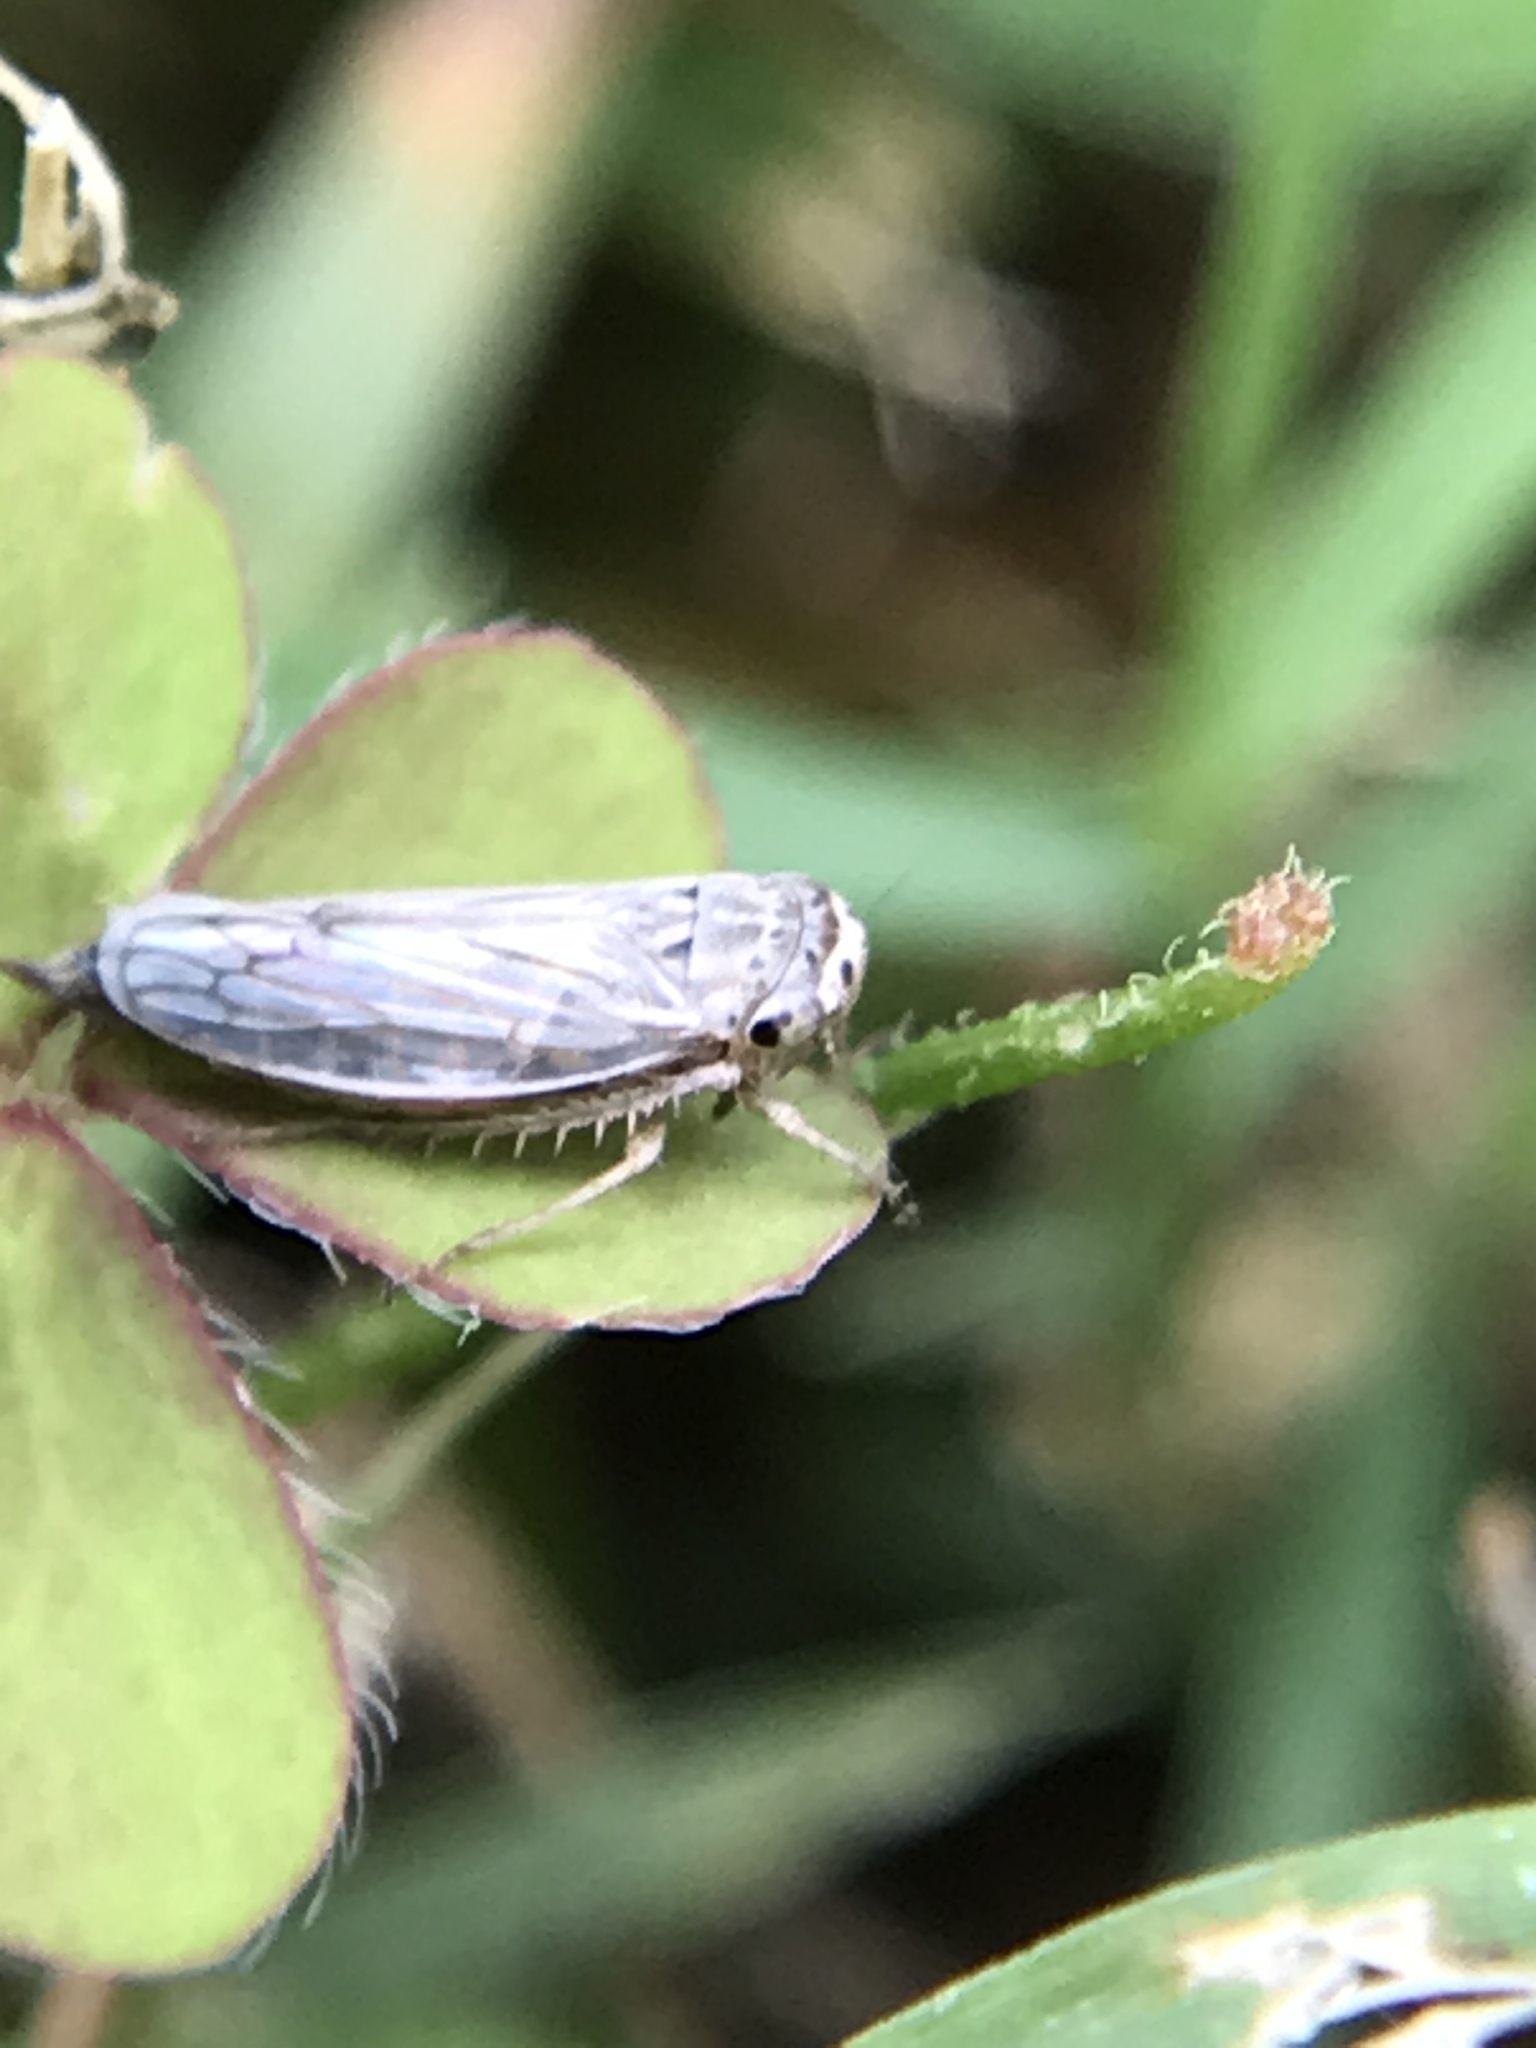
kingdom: Animalia
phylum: Arthropoda
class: Insecta
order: Hemiptera
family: Cicadellidae
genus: Exitianus
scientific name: Exitianus exitiosus
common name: Gray lawn leafhopper
